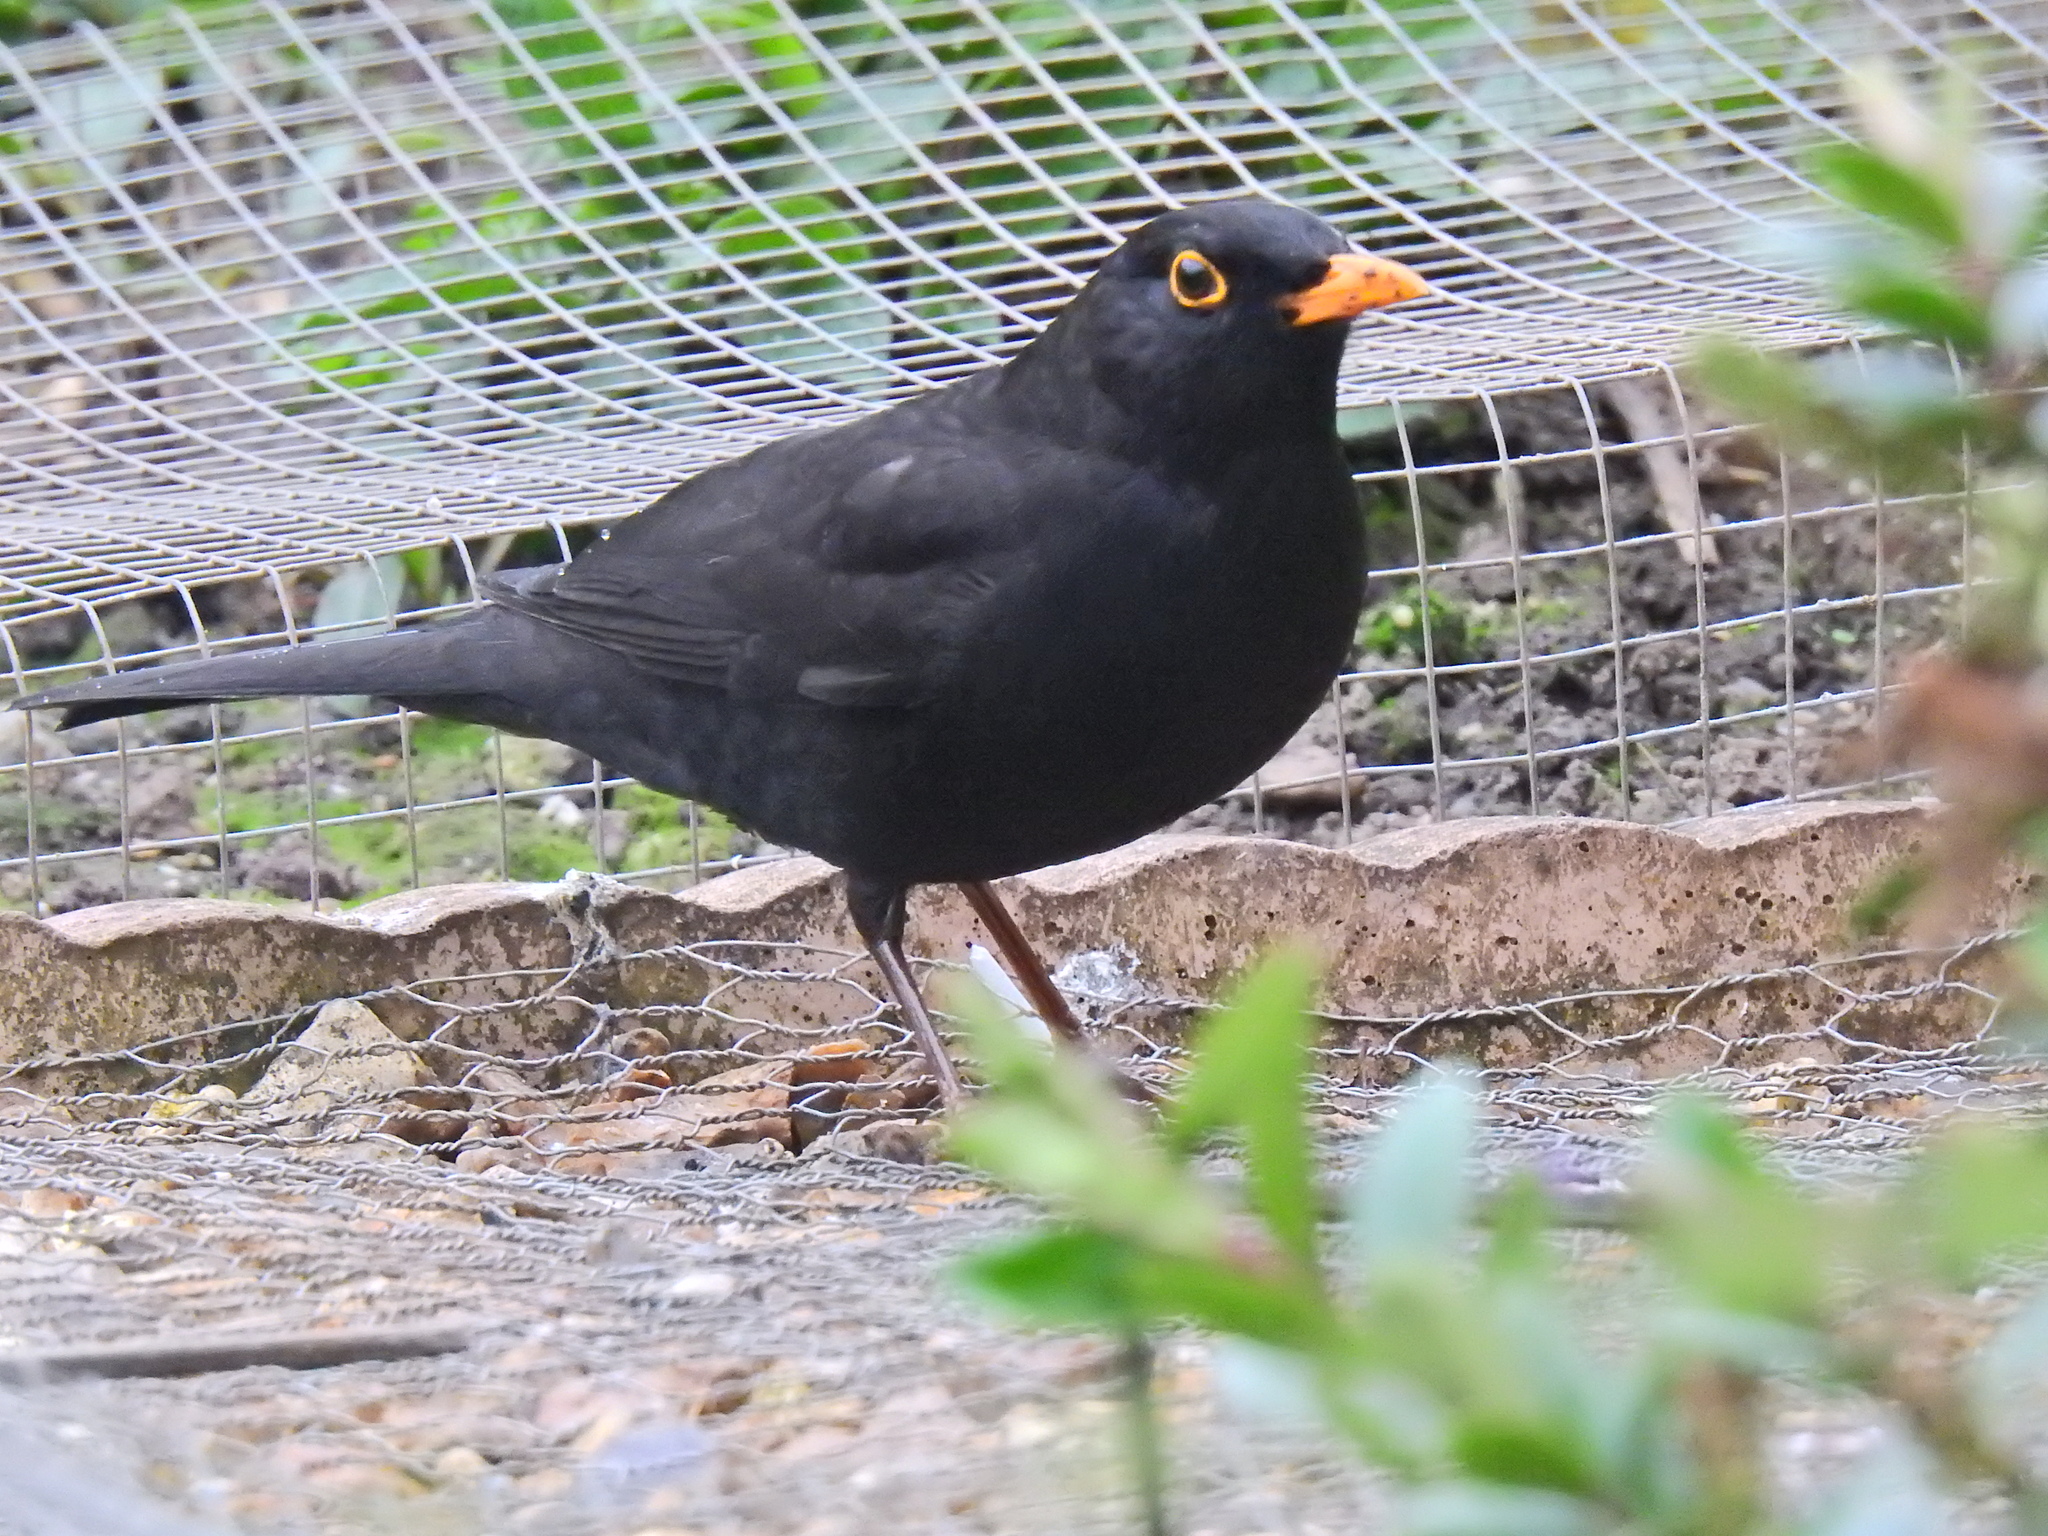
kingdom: Animalia
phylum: Chordata
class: Aves
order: Passeriformes
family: Turdidae
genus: Turdus
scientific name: Turdus merula
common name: Common blackbird
